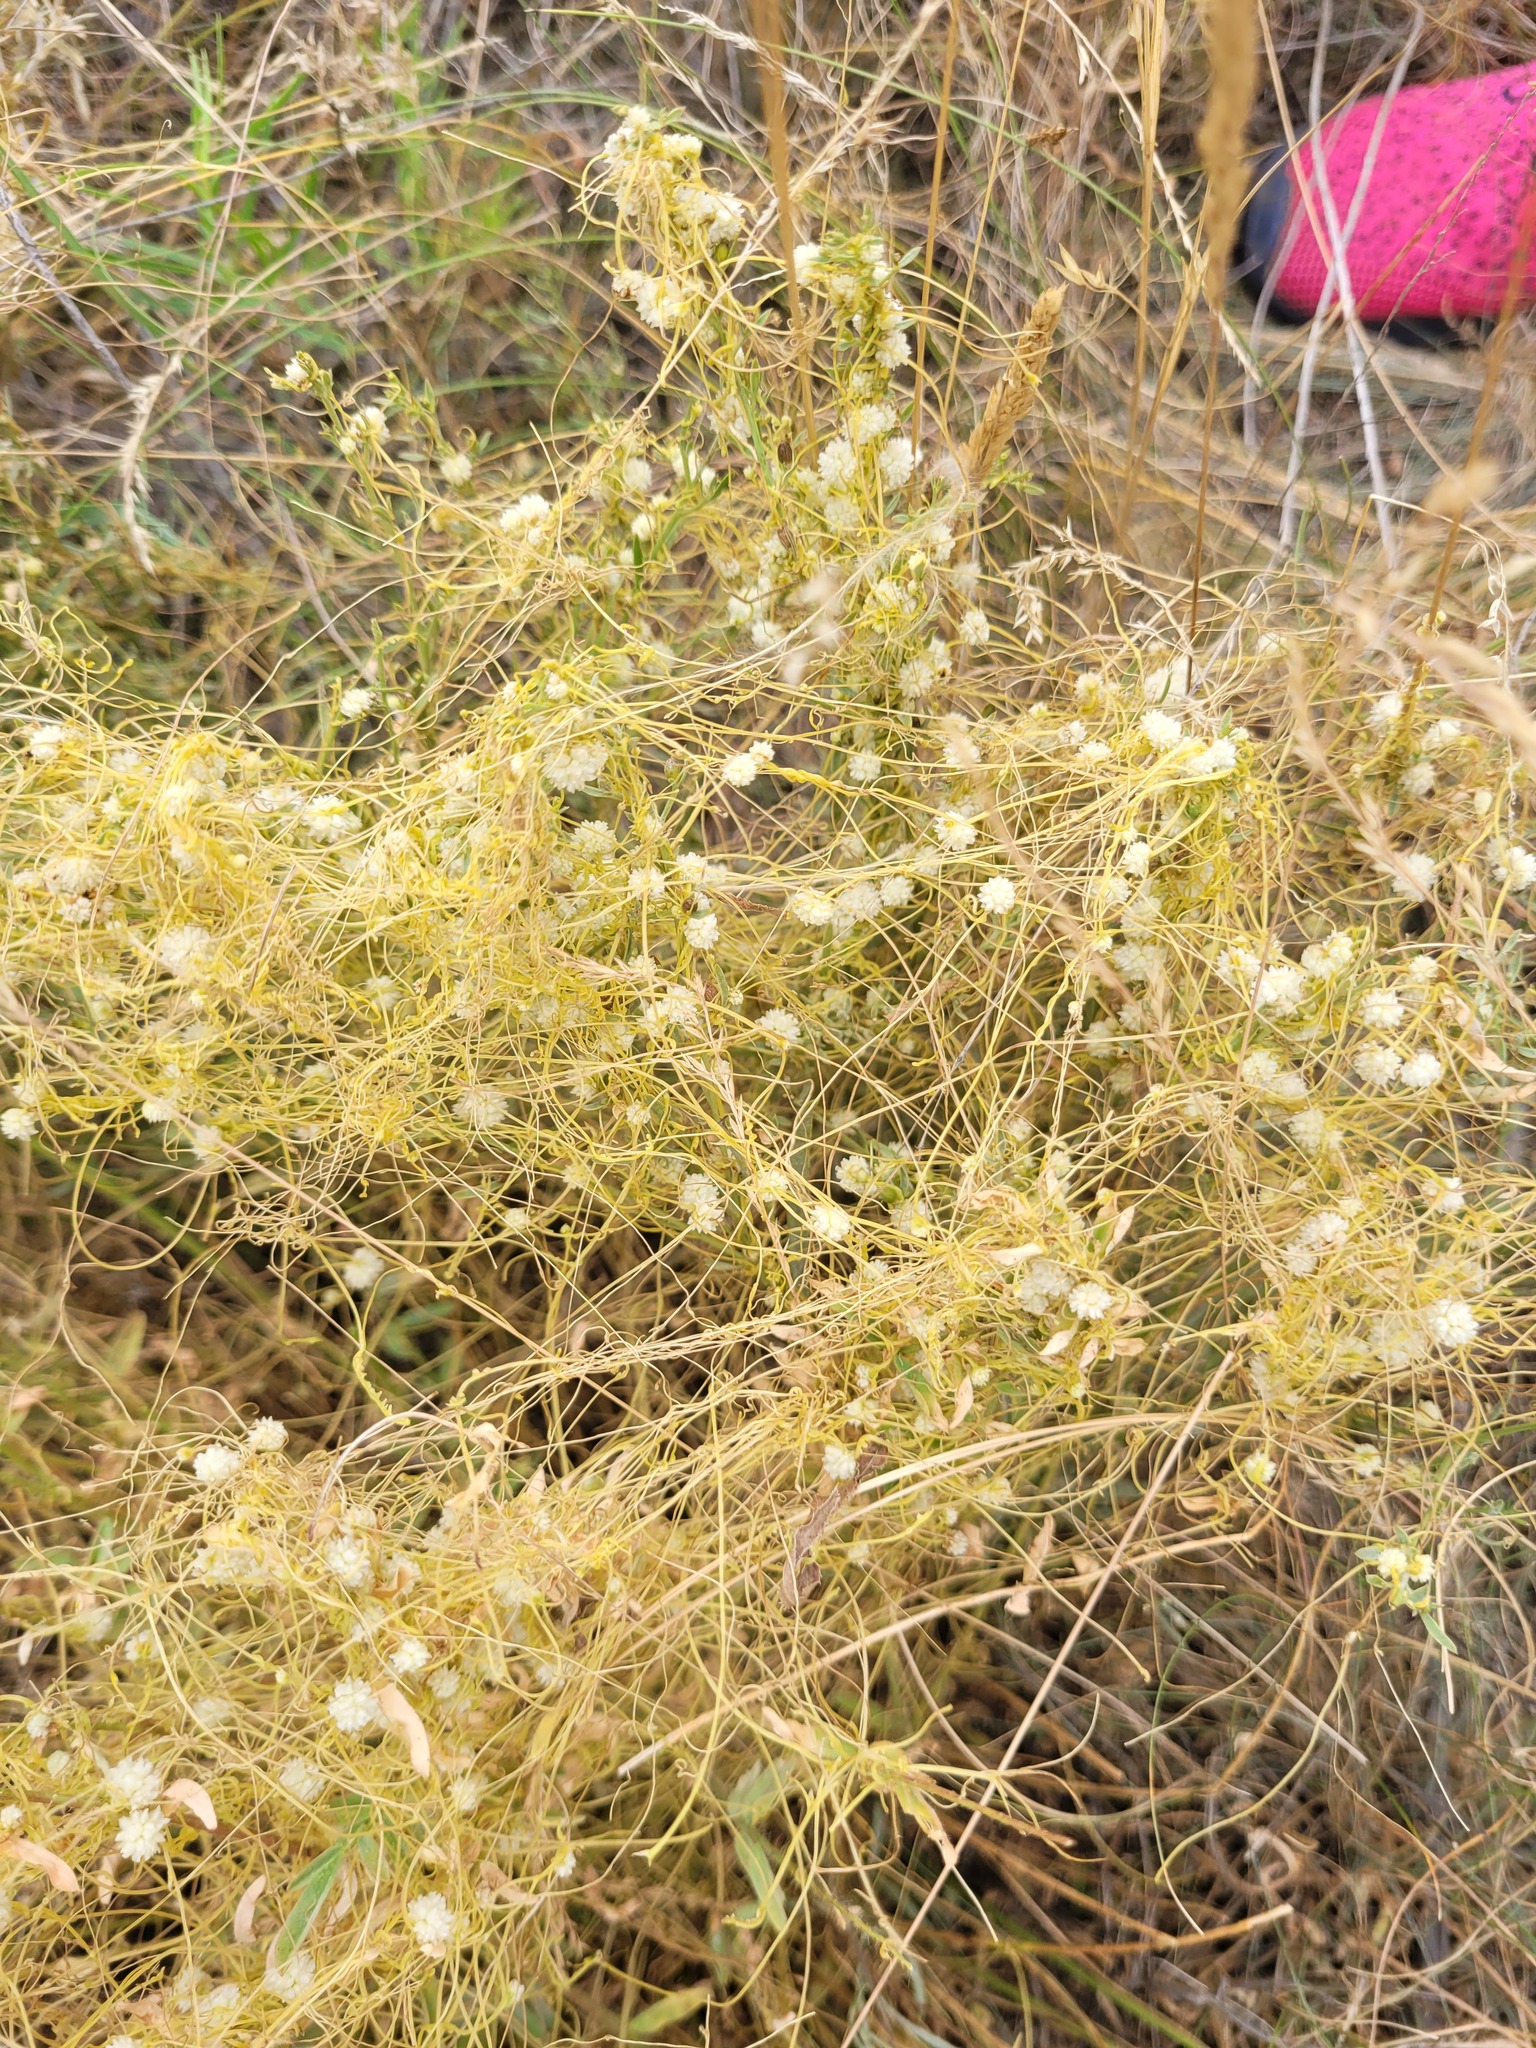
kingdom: Plantae
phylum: Tracheophyta
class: Magnoliopsida
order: Solanales
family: Convolvulaceae
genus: Cuscuta
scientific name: Cuscuta approximata
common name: Alfalfa dodder
